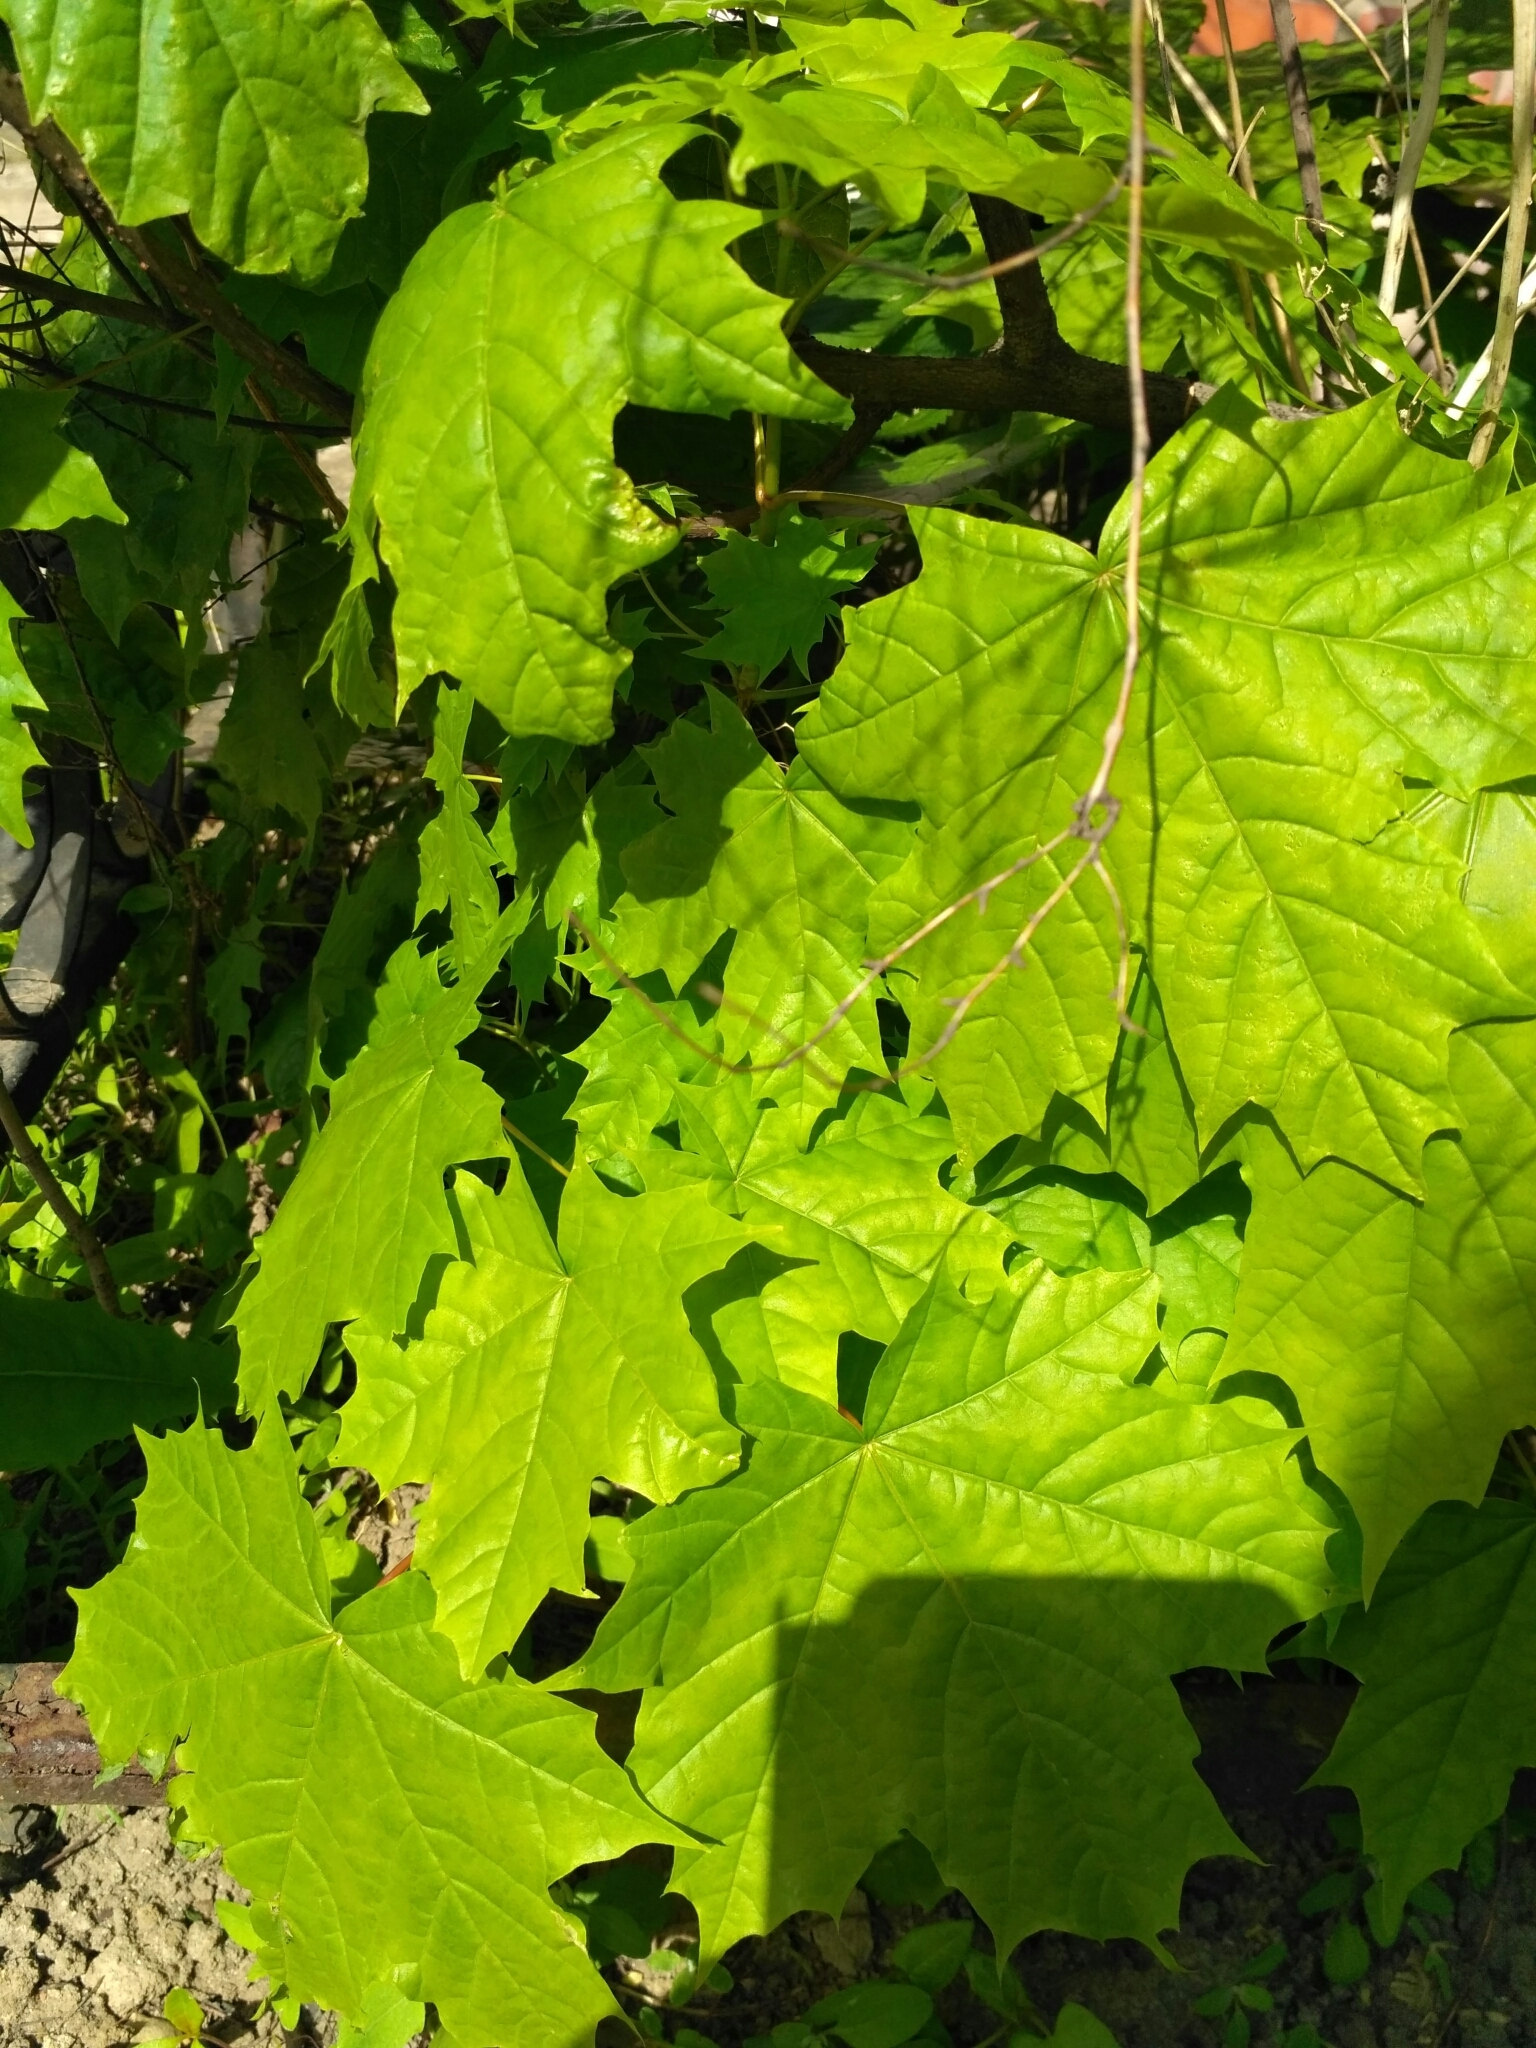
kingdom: Plantae
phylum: Tracheophyta
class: Magnoliopsida
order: Sapindales
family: Sapindaceae
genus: Acer
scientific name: Acer platanoides
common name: Norway maple
